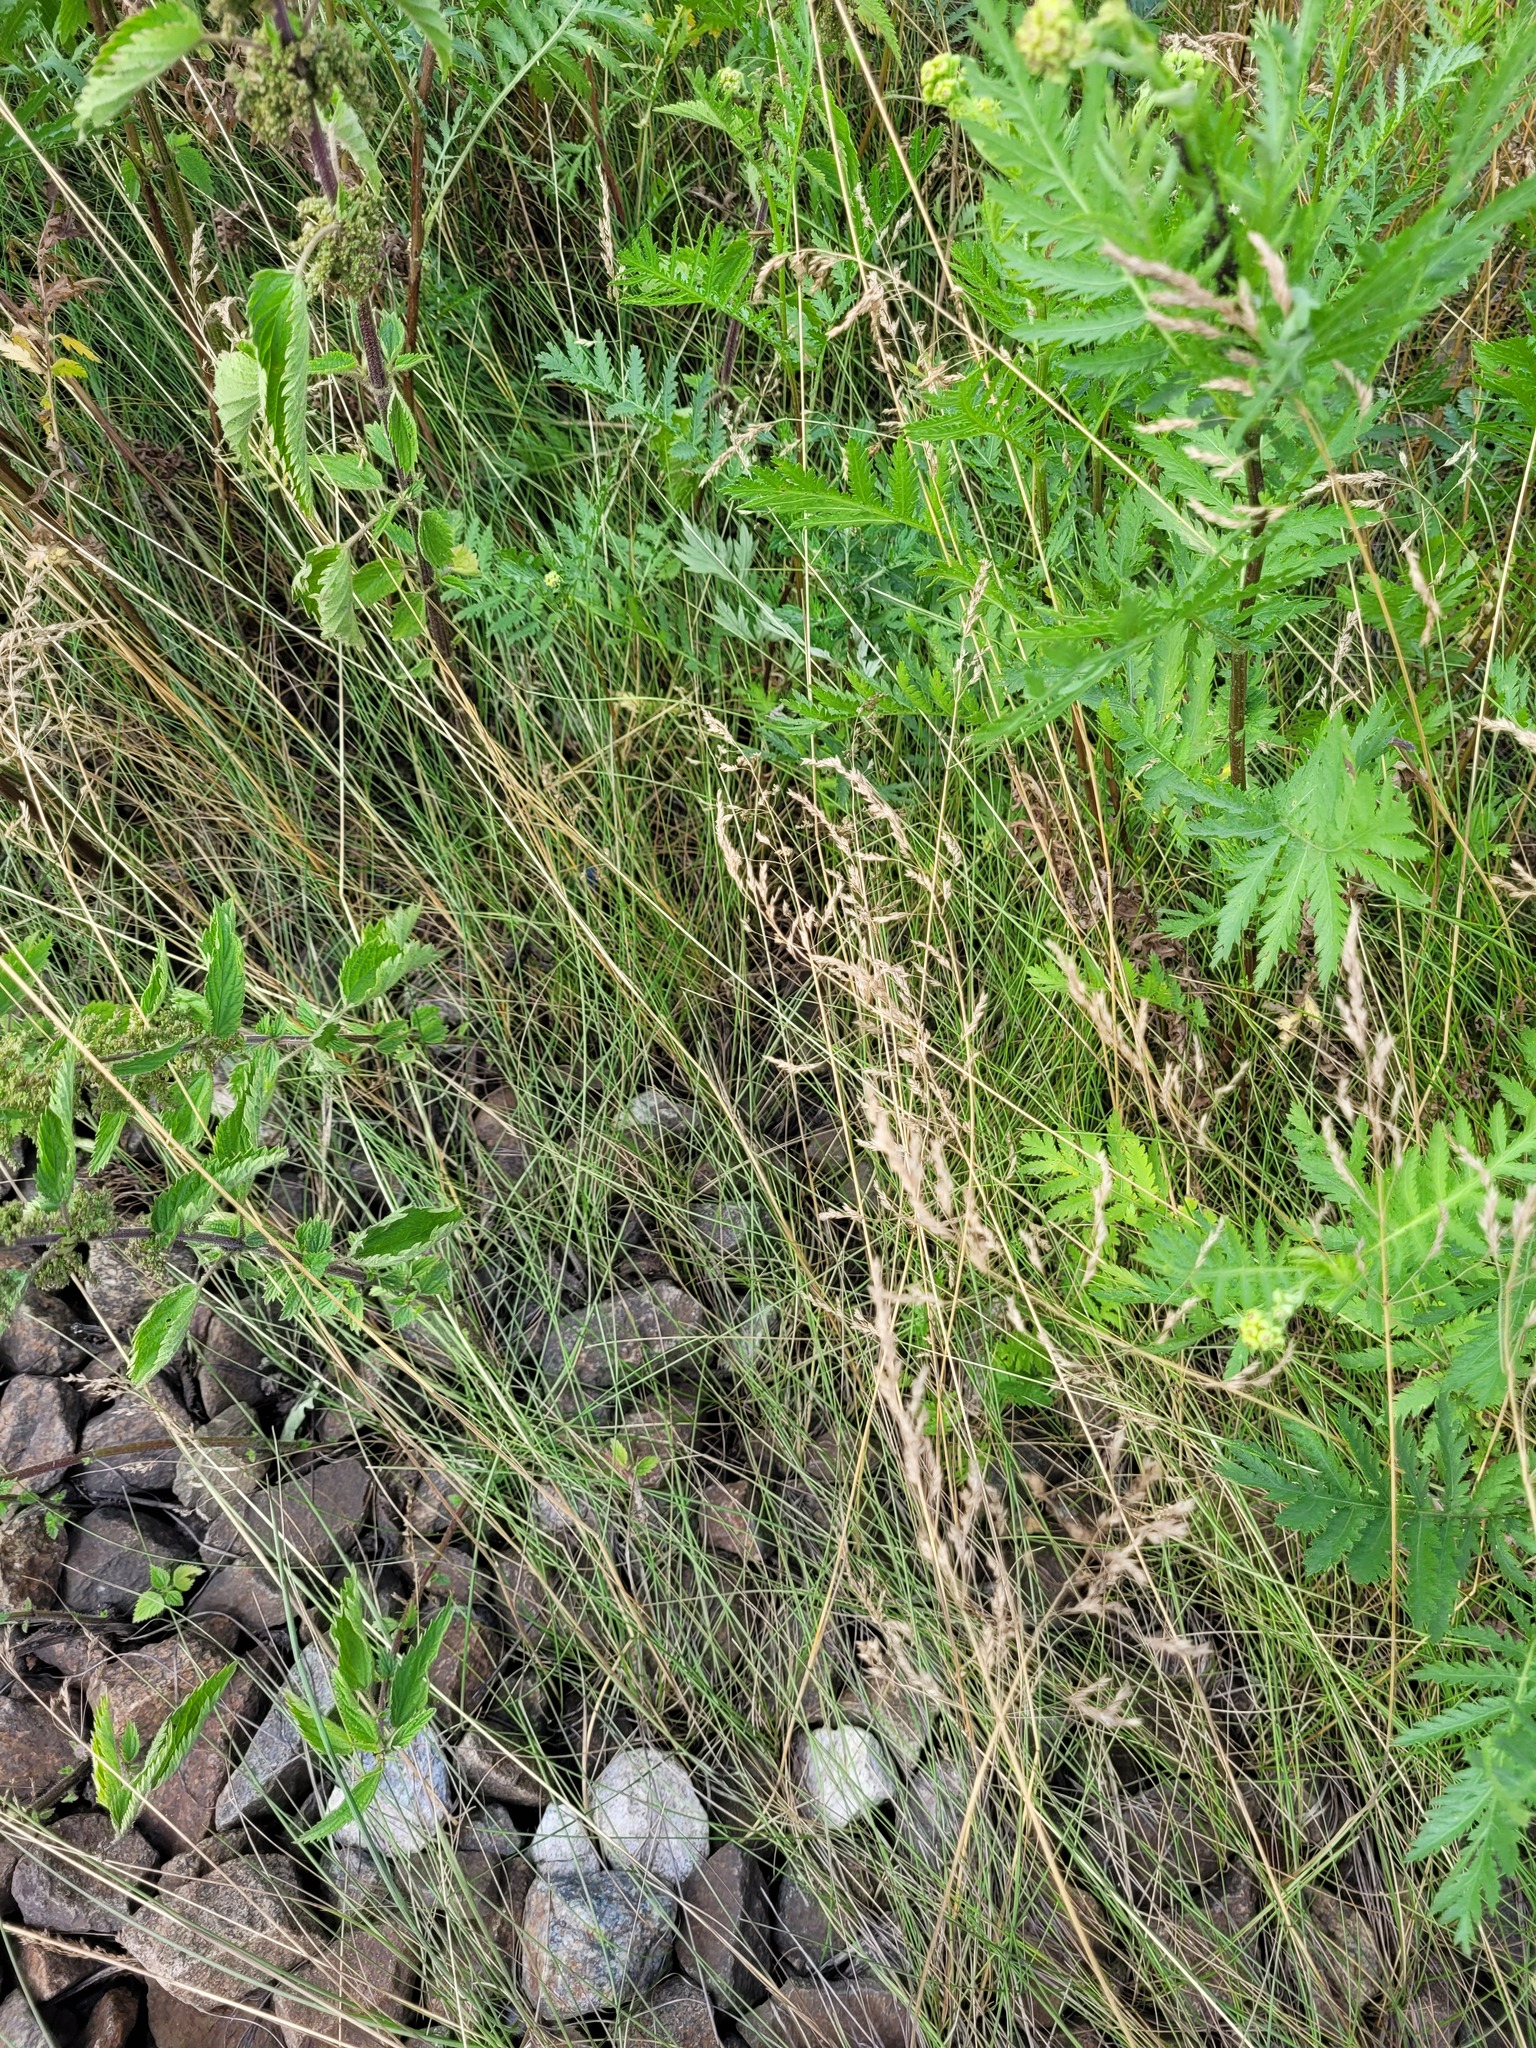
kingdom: Plantae
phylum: Tracheophyta
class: Liliopsida
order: Poales
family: Poaceae
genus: Poa
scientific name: Poa angustifolia
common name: Narrow-leaved meadow-grass
